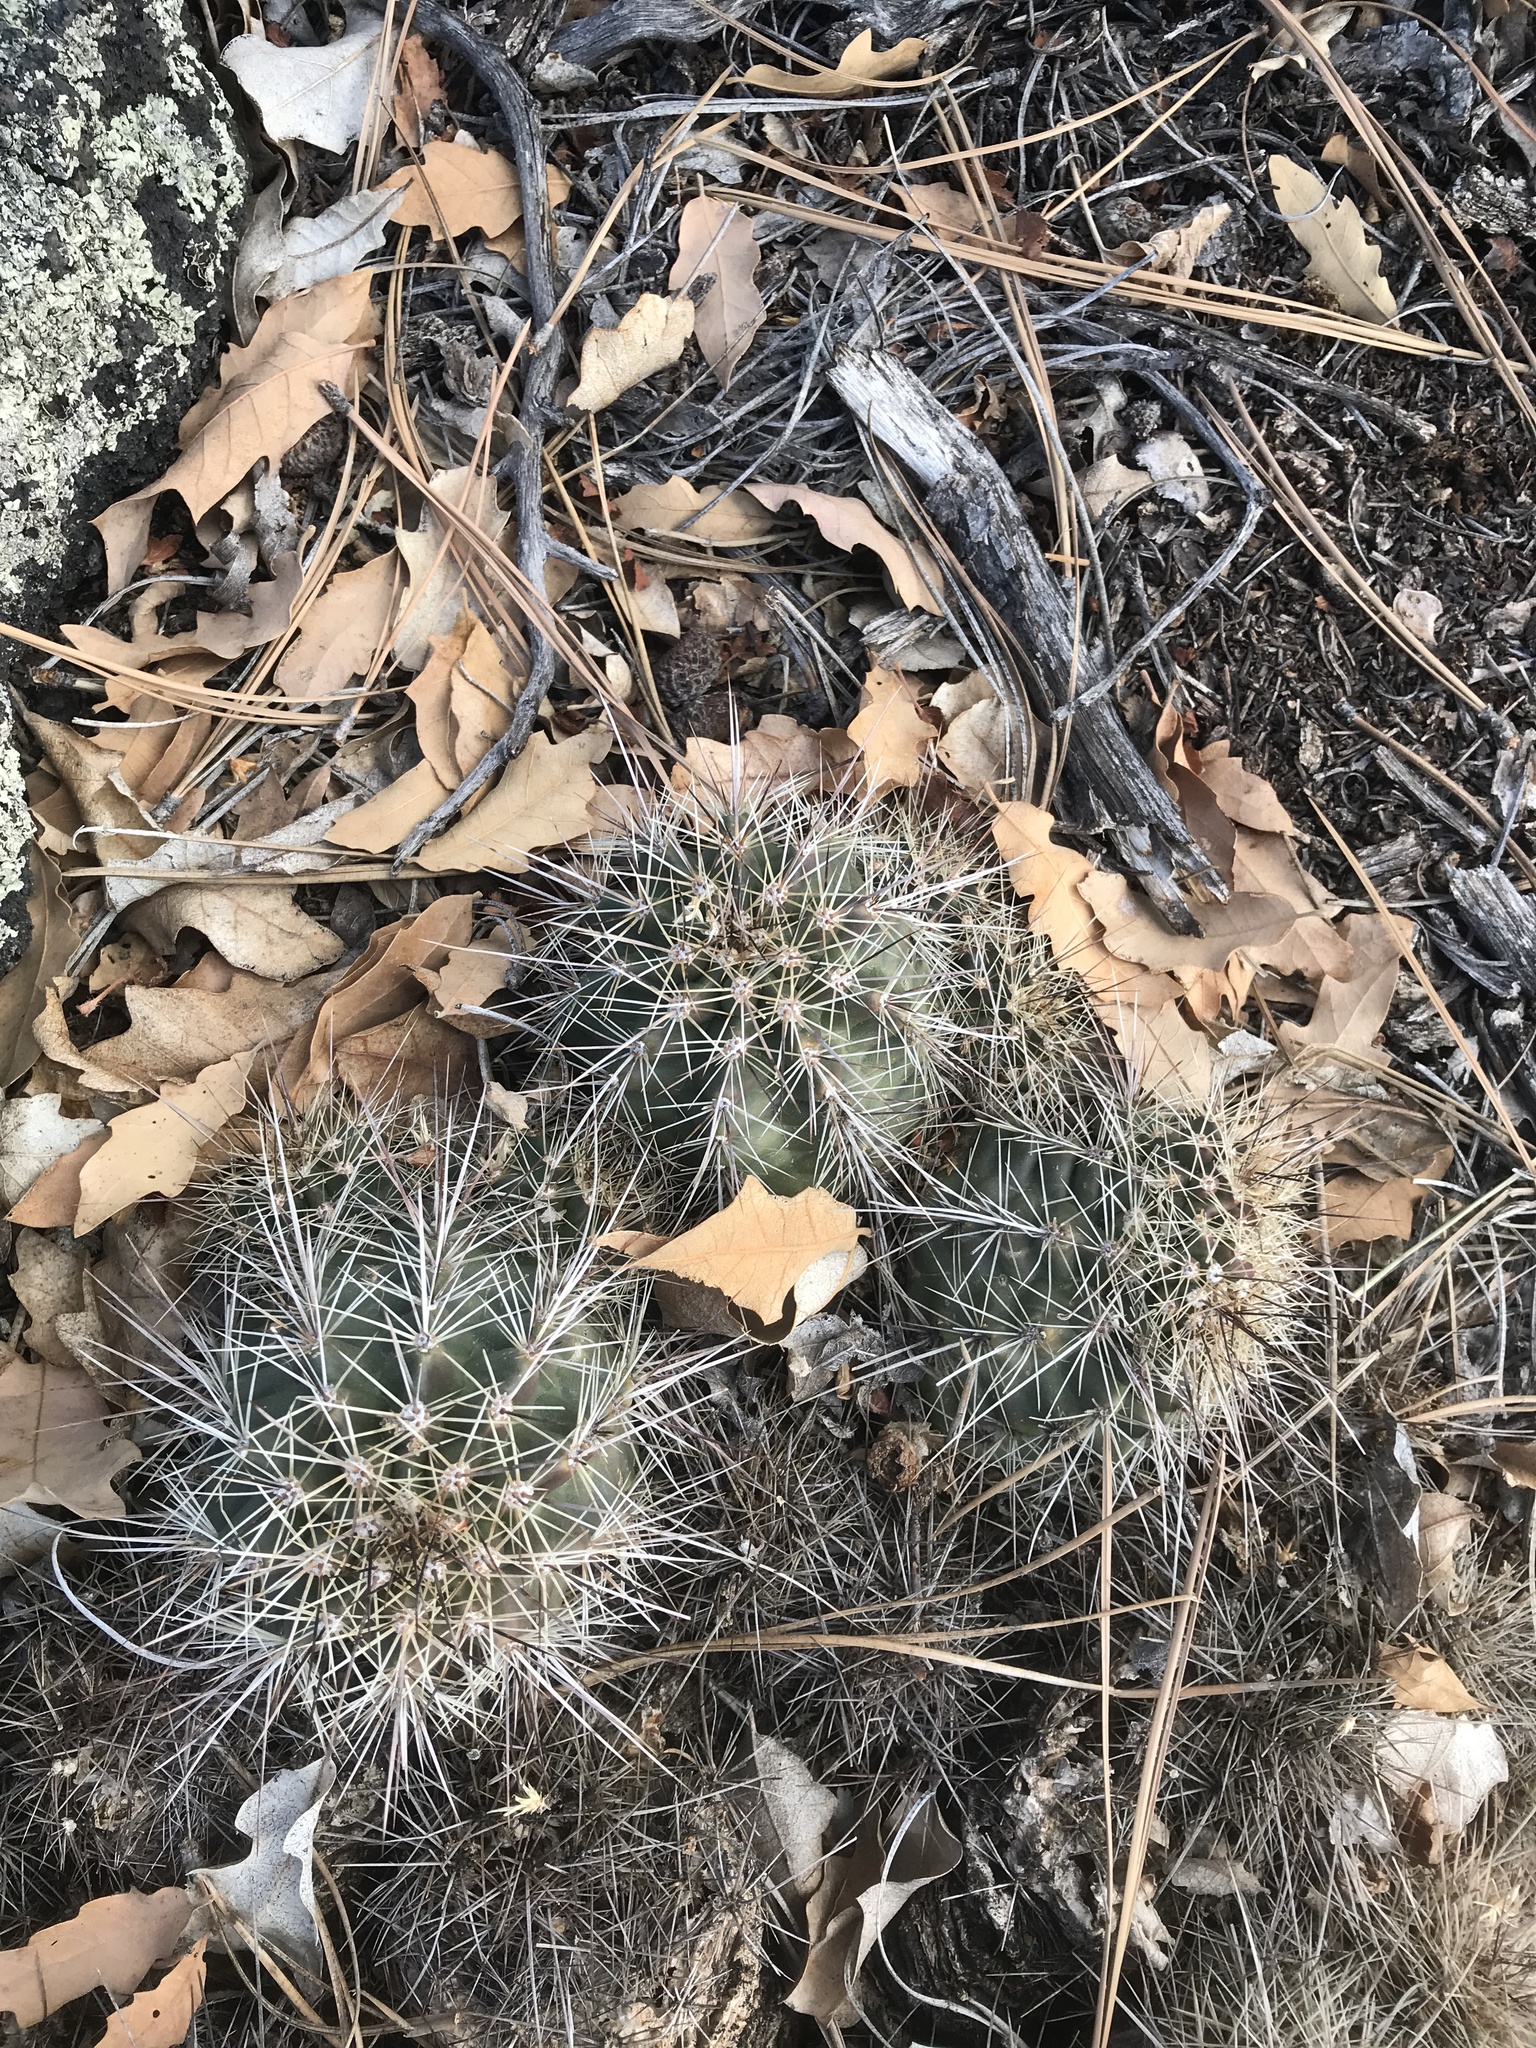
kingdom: Plantae
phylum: Tracheophyta
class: Magnoliopsida
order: Caryophyllales
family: Cactaceae
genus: Echinocereus
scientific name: Echinocereus coccineus
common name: Scarlet hedgehog cactus
